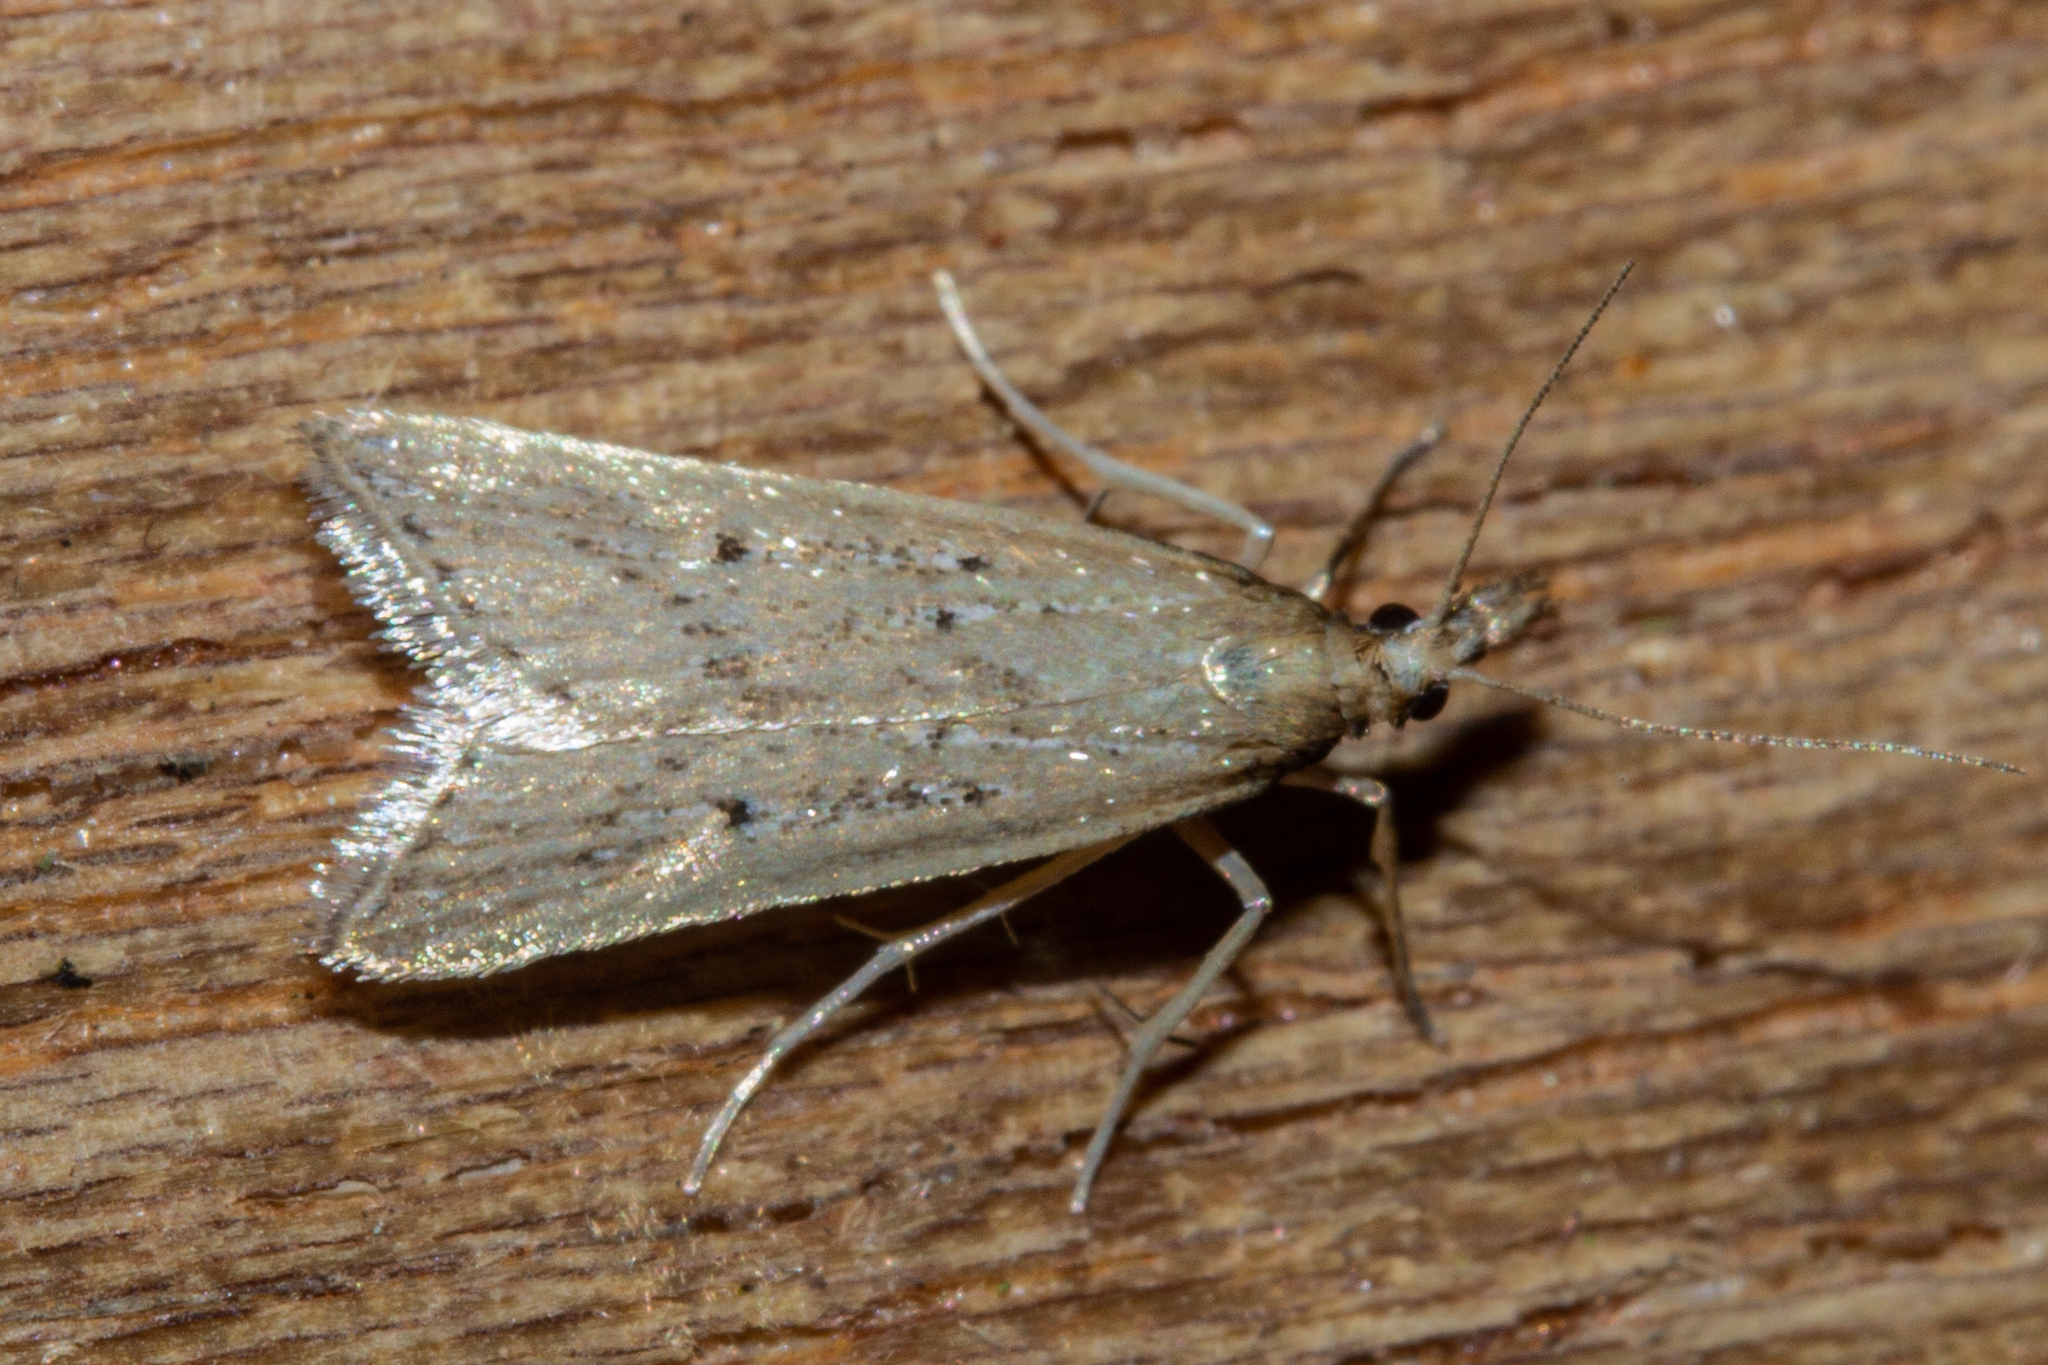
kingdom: Animalia
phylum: Arthropoda
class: Insecta
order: Lepidoptera
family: Crambidae
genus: Antiscopa
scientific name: Antiscopa elaphra
